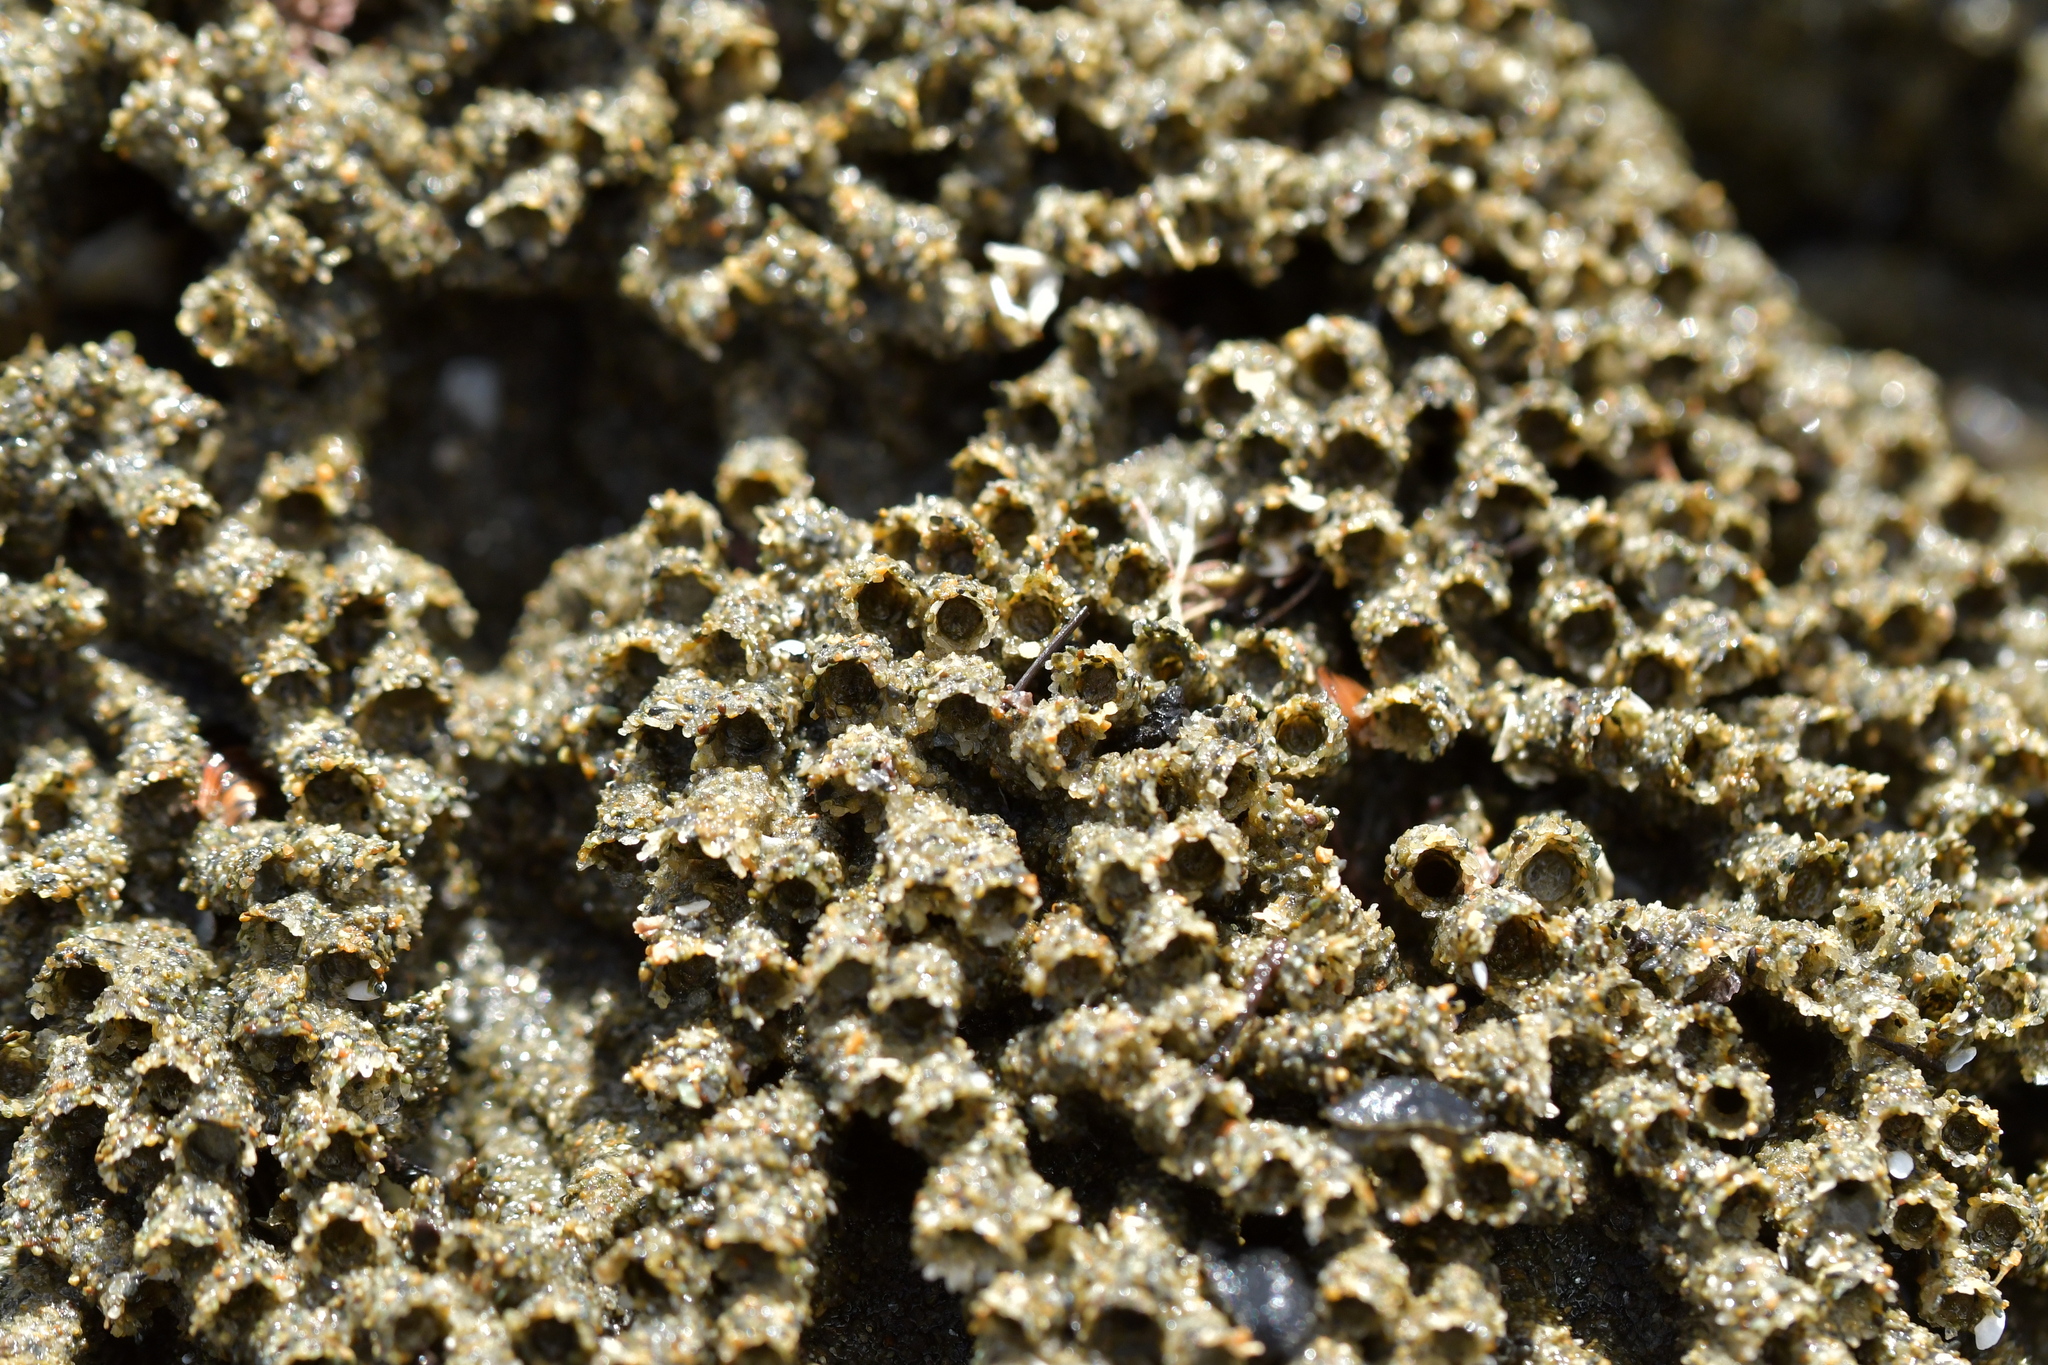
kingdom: Animalia
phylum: Annelida
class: Polychaeta
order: Sabellida
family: Sabellariidae
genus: Neosabellaria
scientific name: Neosabellaria kaiparaensis
